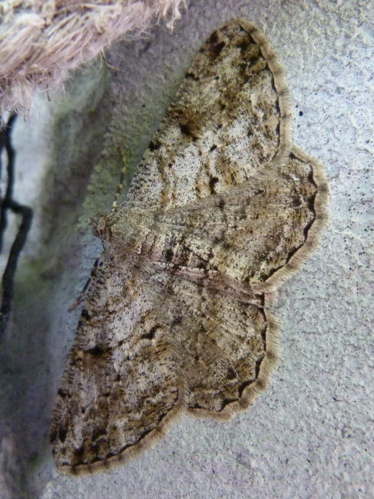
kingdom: Animalia
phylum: Arthropoda
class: Insecta
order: Lepidoptera
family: Geometridae
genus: Peribatodes
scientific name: Peribatodes rhomboidaria
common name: Willow beauty
